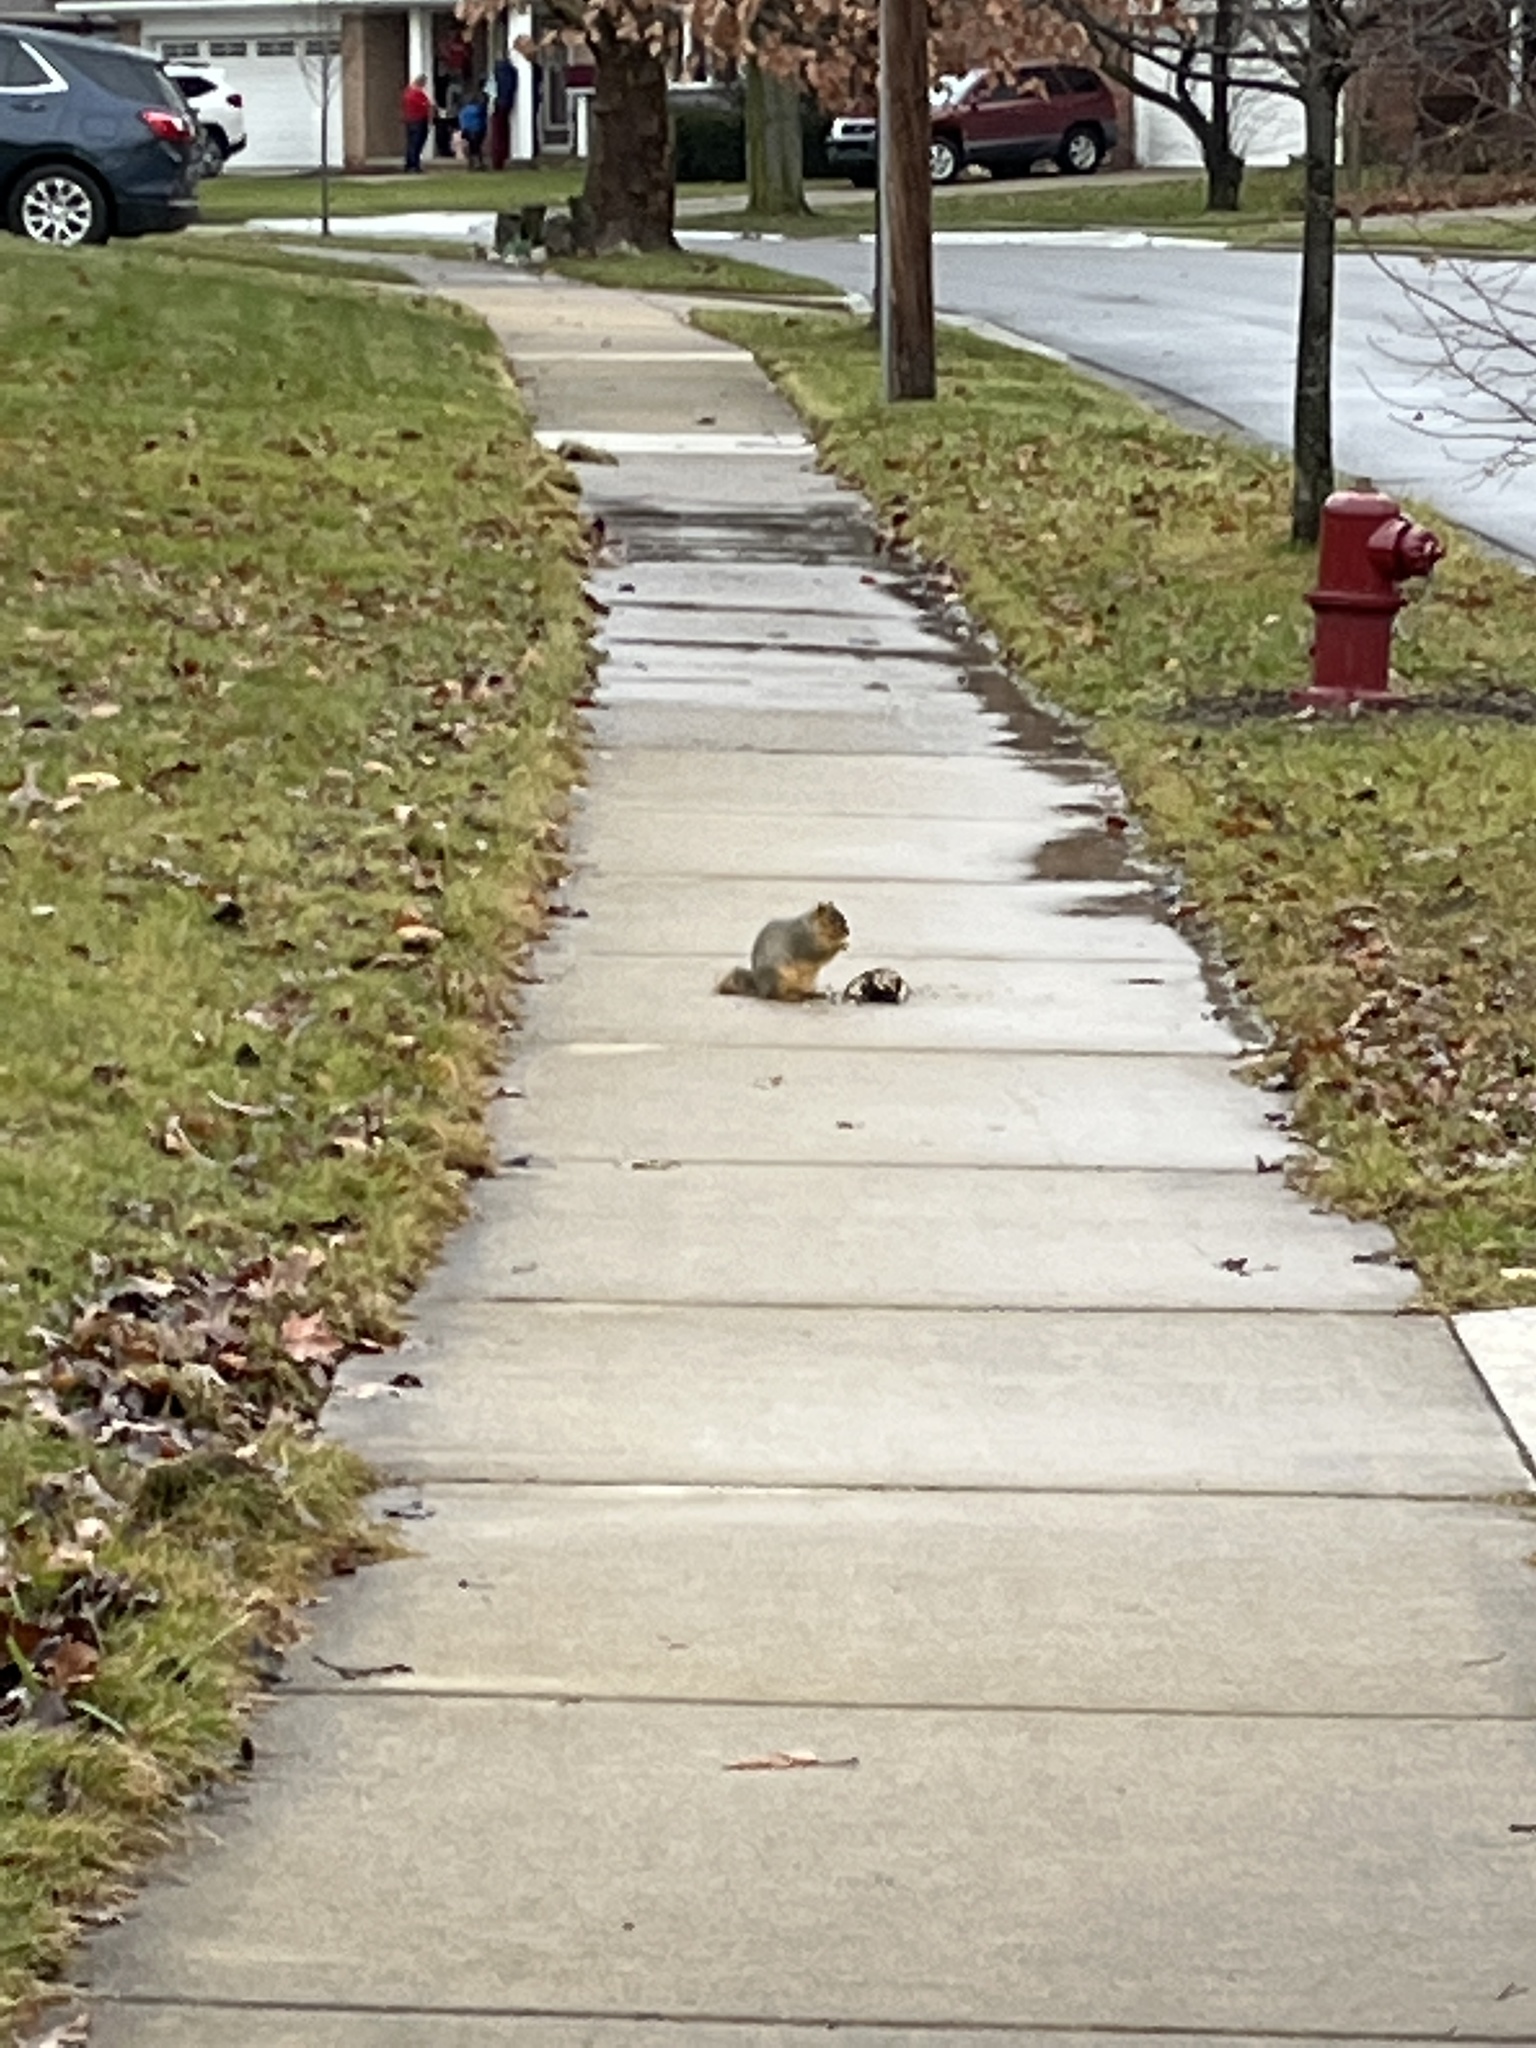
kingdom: Animalia
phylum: Chordata
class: Mammalia
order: Rodentia
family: Sciuridae
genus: Sciurus
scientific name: Sciurus niger
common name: Fox squirrel
